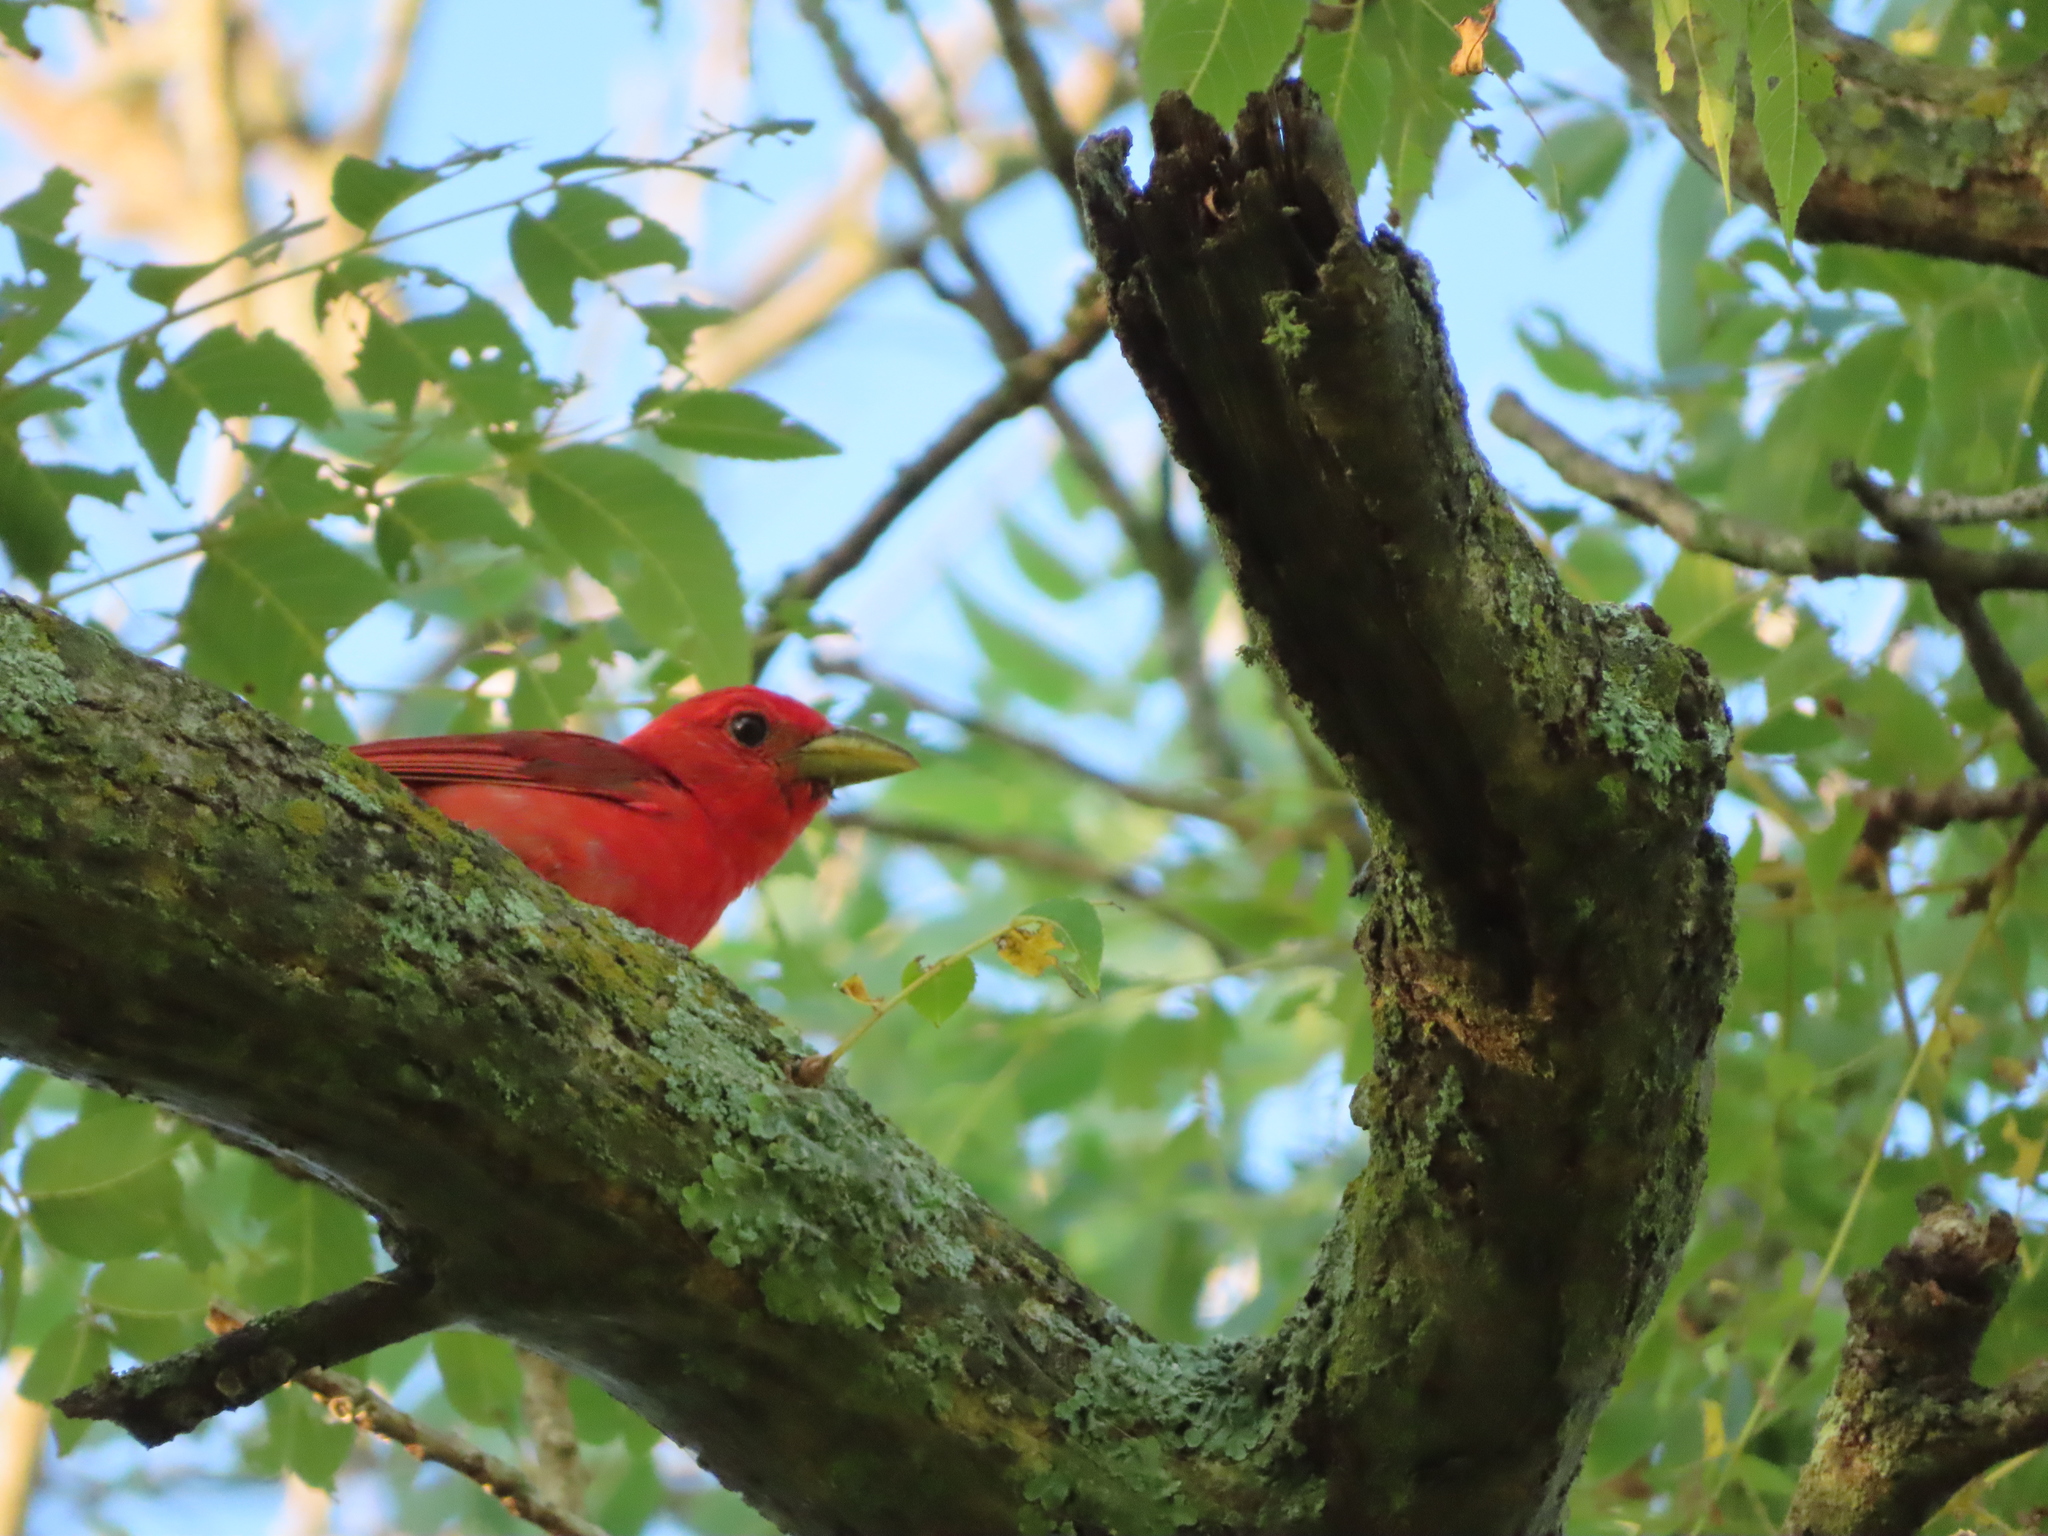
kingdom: Animalia
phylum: Chordata
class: Aves
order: Passeriformes
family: Cardinalidae
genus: Piranga
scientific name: Piranga rubra
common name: Summer tanager
